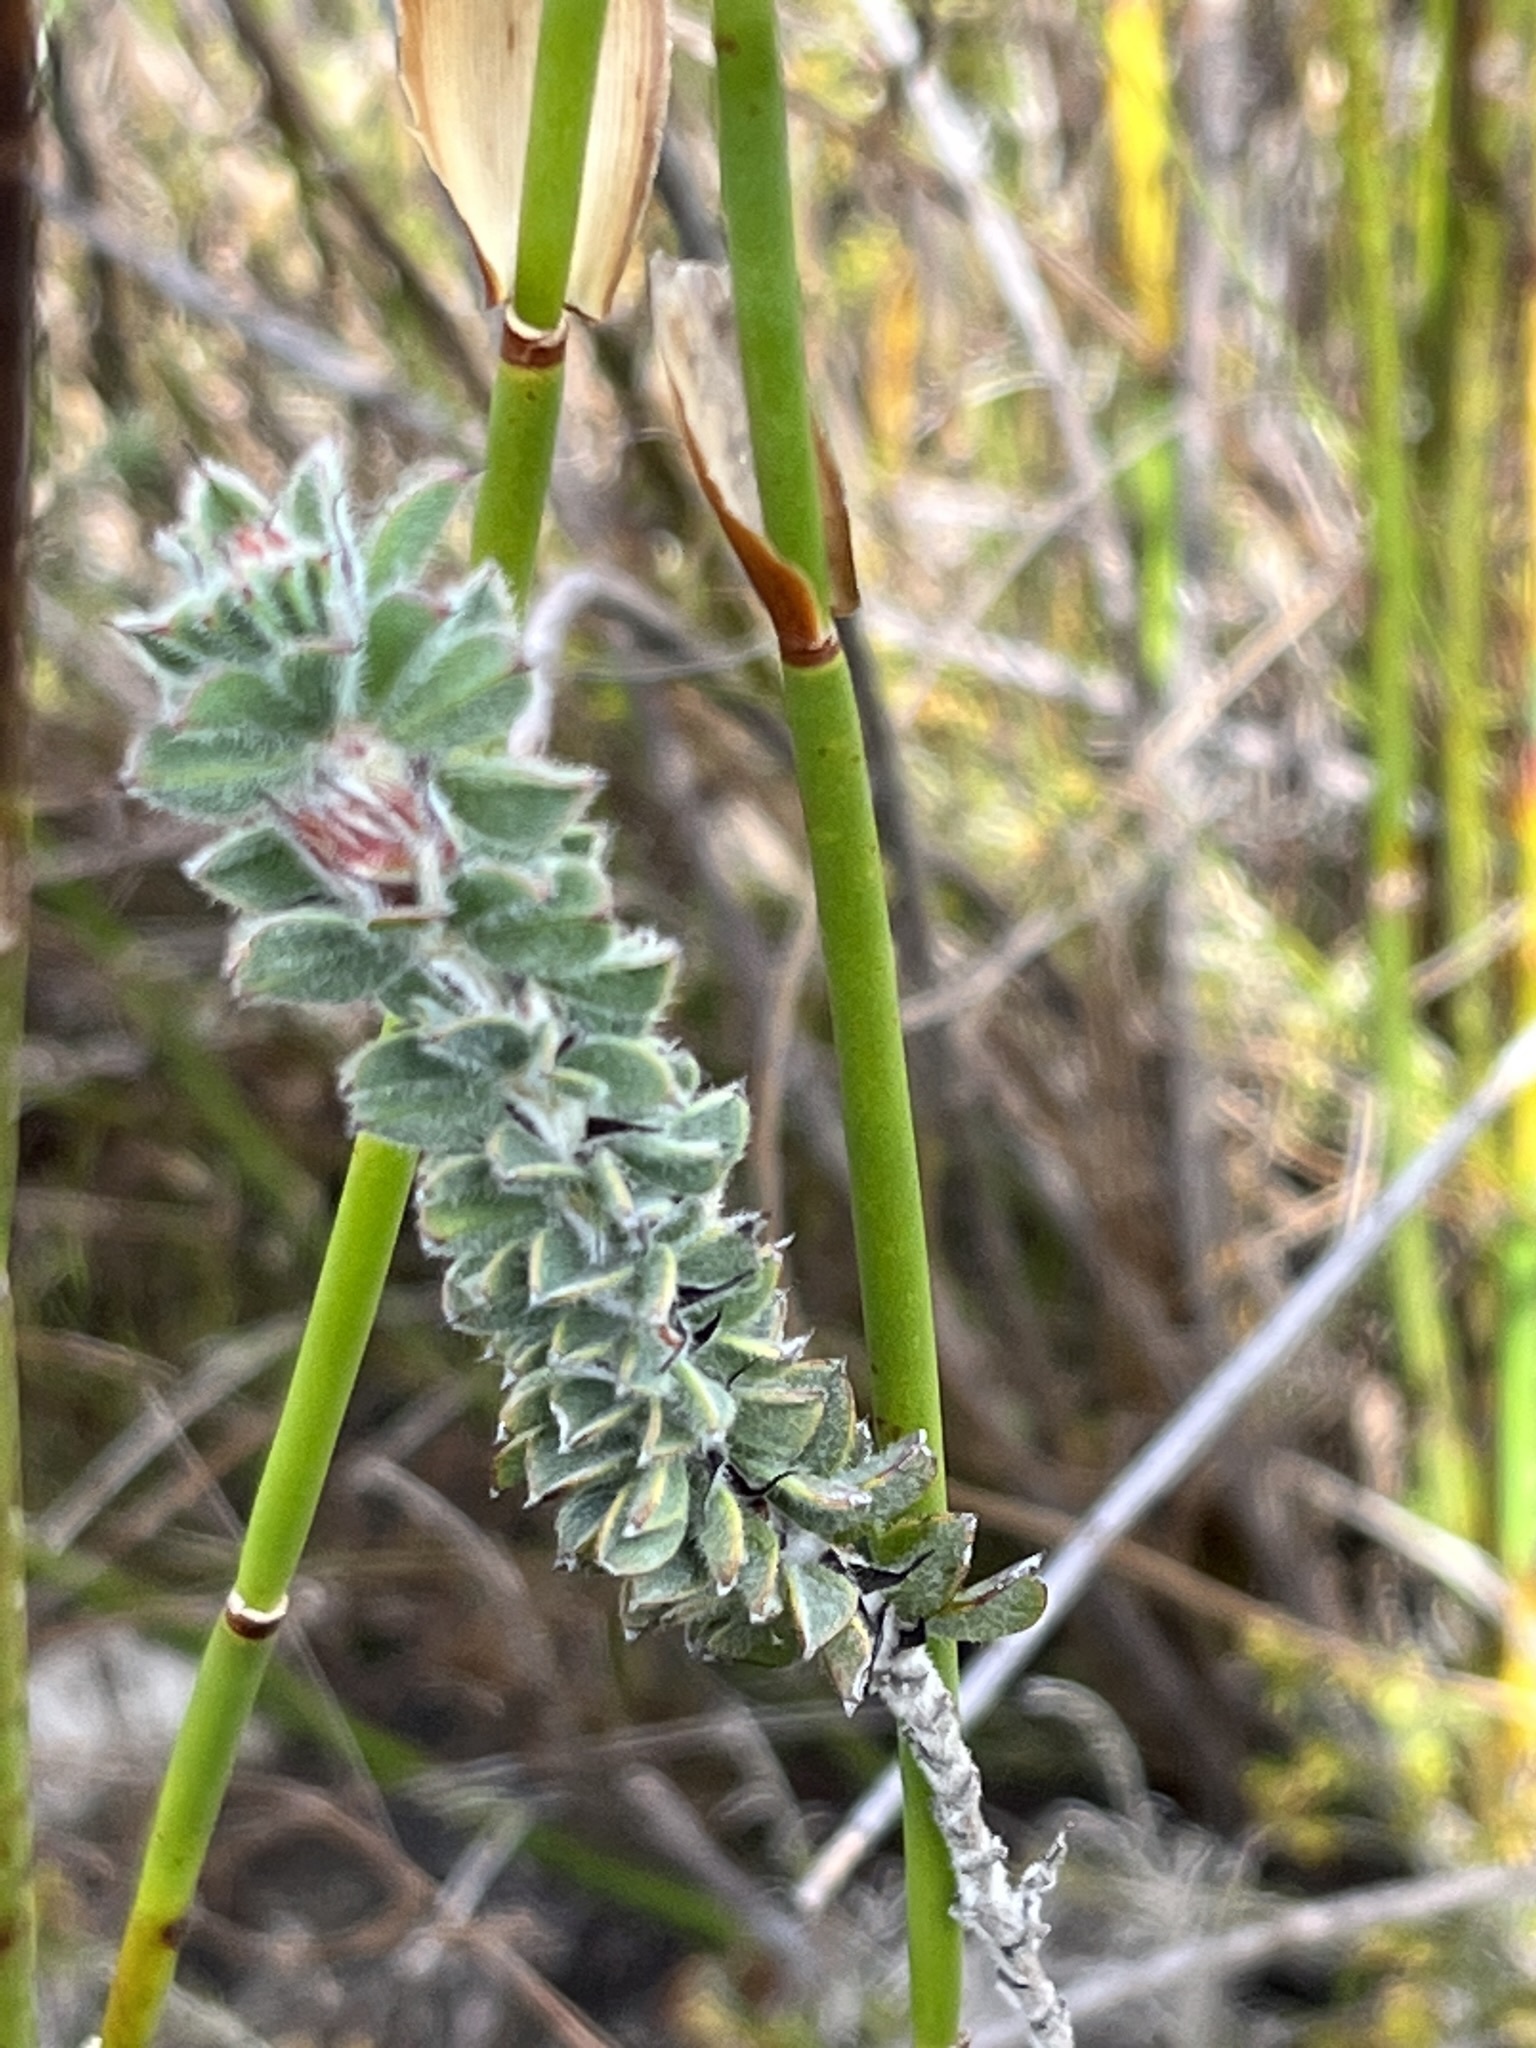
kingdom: Plantae
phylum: Tracheophyta
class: Magnoliopsida
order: Fabales
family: Fabaceae
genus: Indigofera
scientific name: Indigofera
